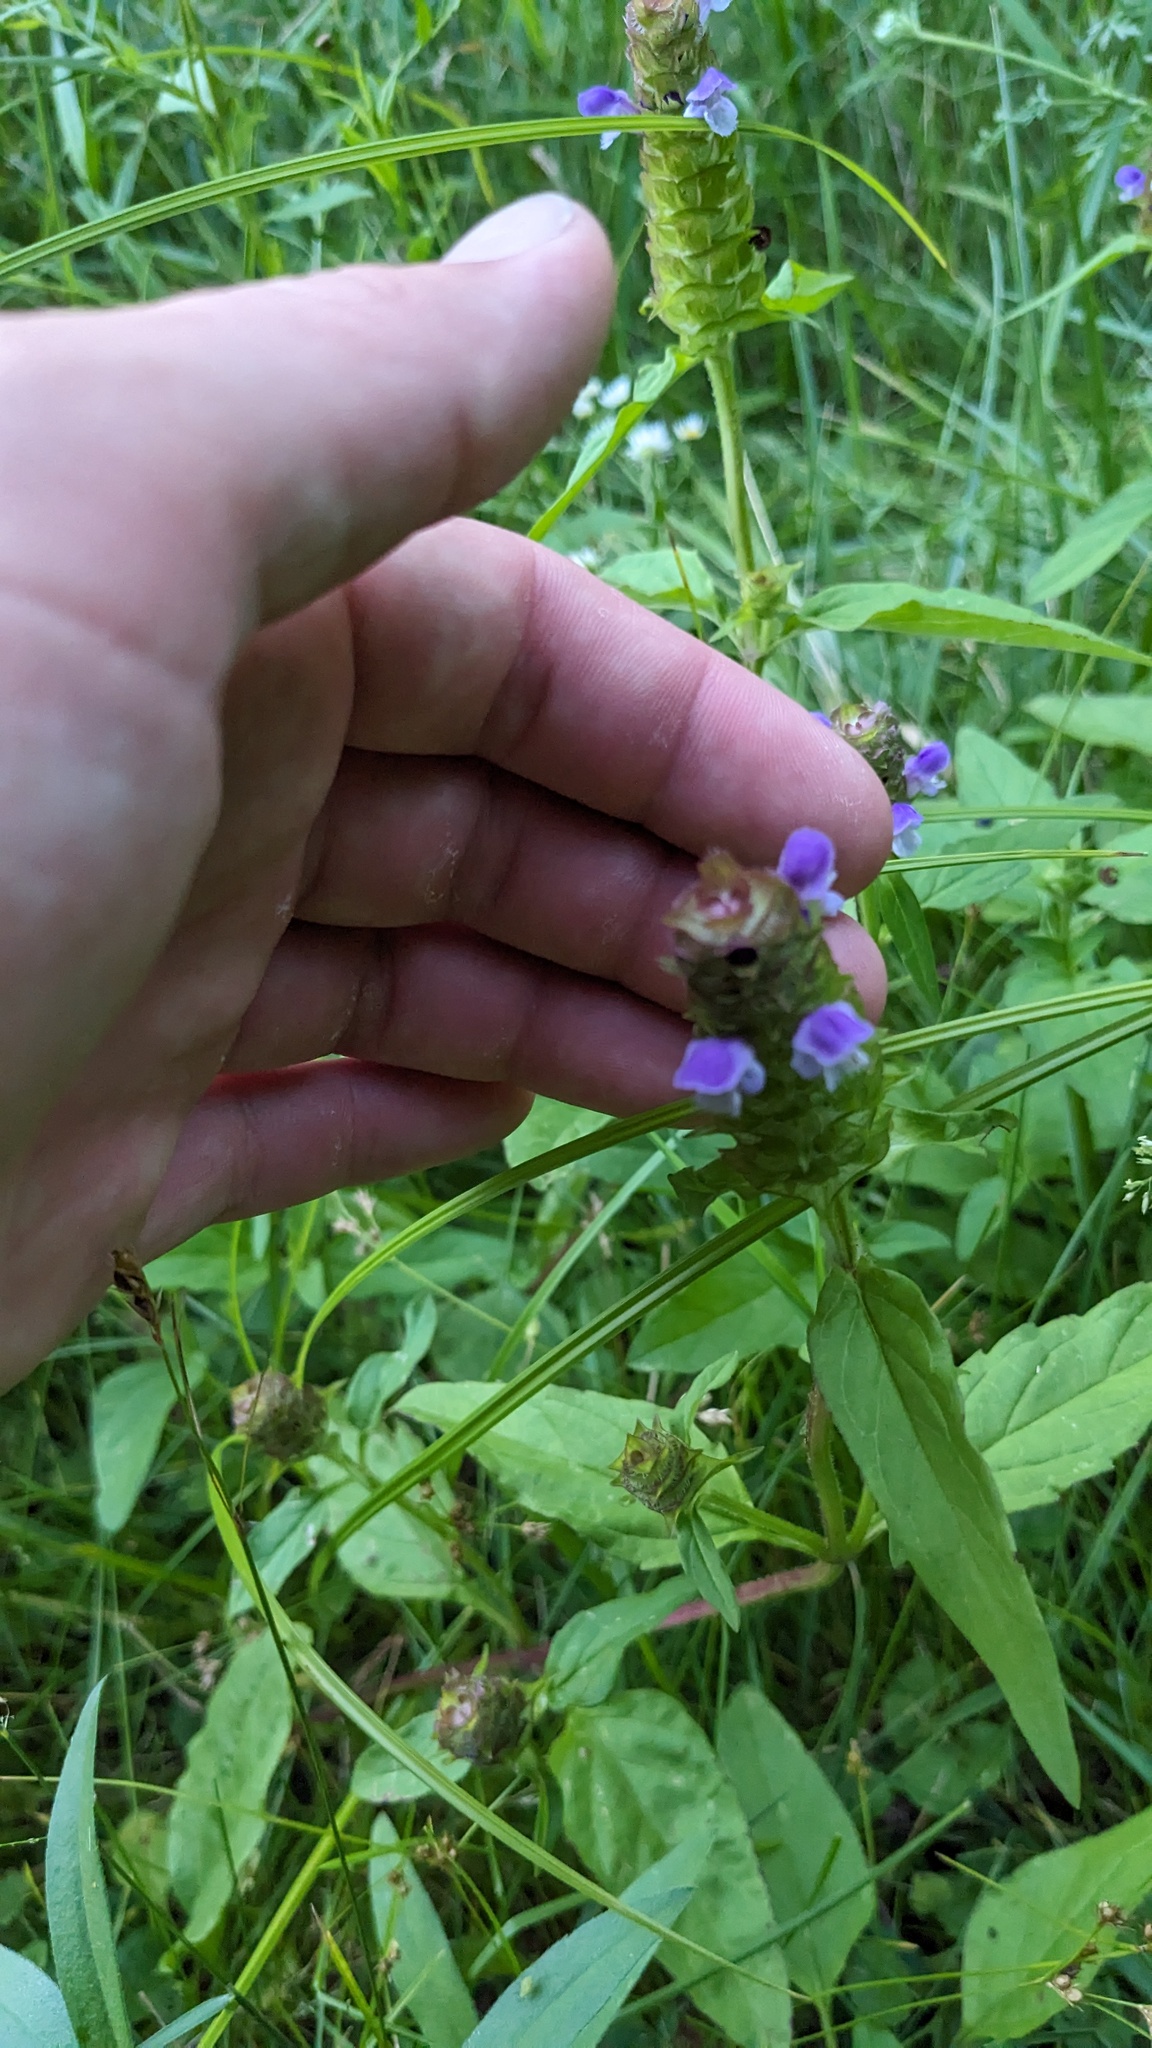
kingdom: Plantae
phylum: Tracheophyta
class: Magnoliopsida
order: Lamiales
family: Lamiaceae
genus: Prunella
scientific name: Prunella vulgaris
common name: Heal-all
